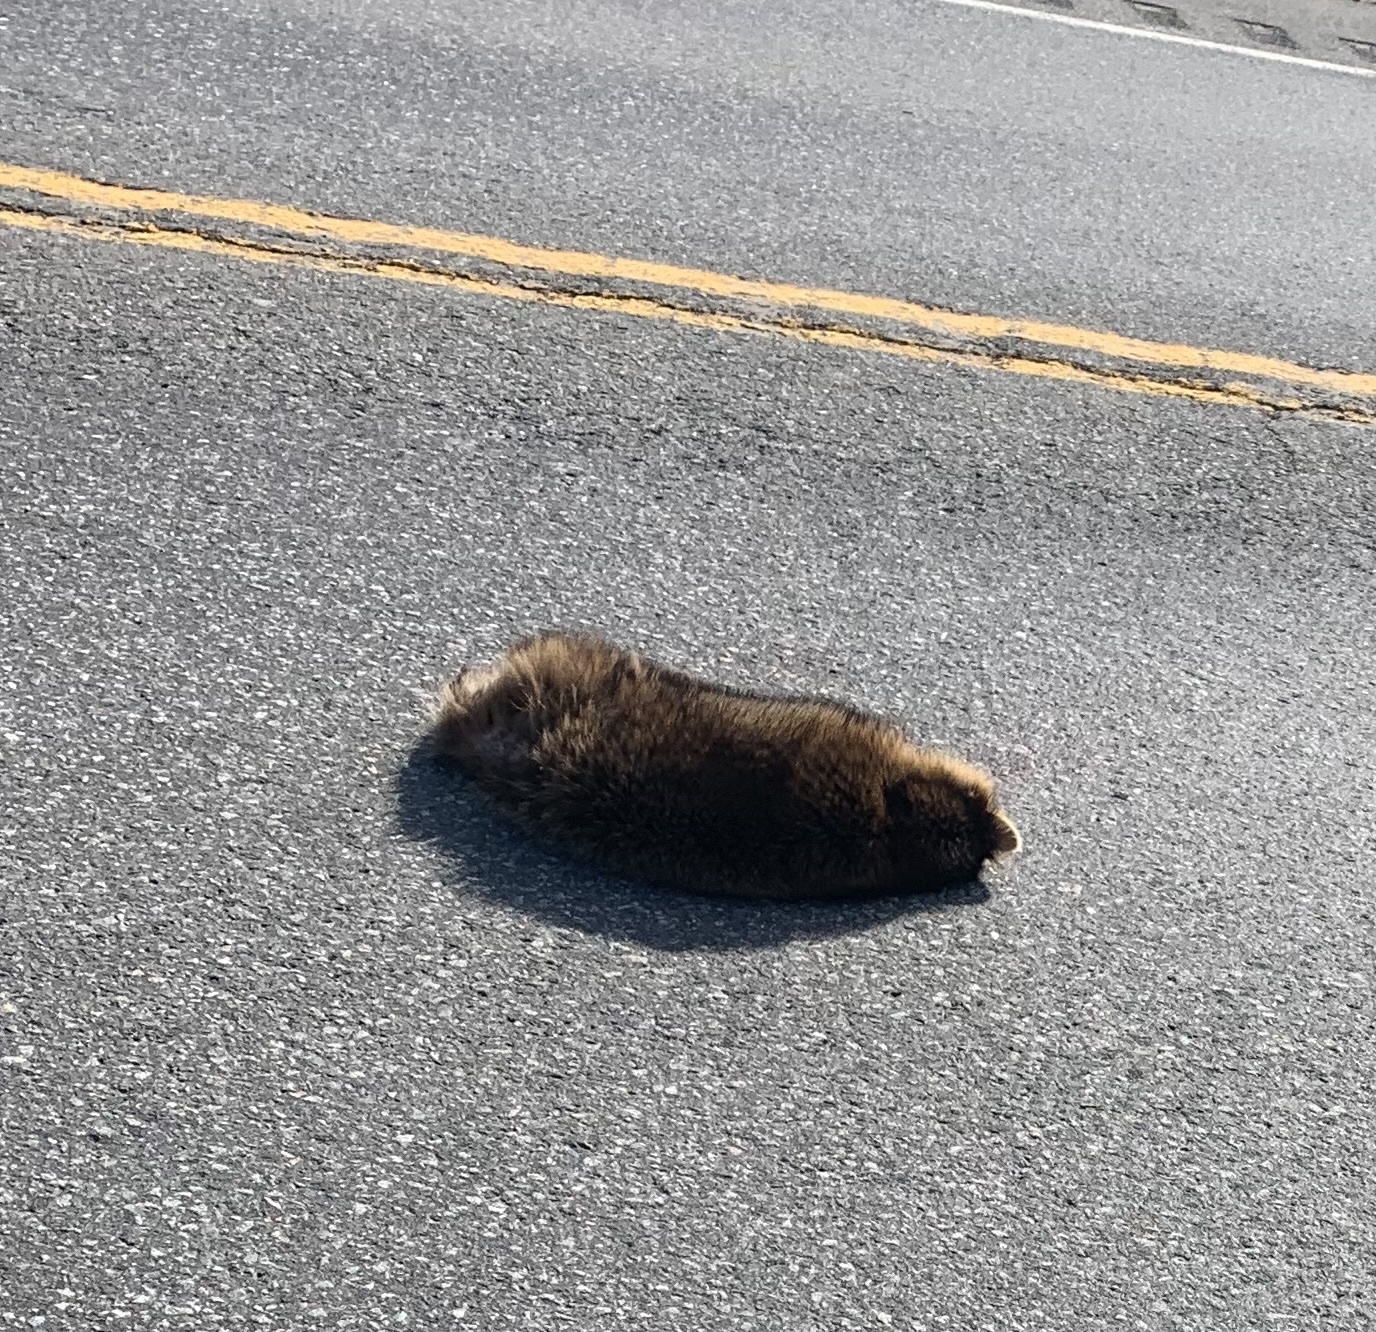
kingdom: Animalia
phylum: Chordata
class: Mammalia
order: Carnivora
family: Procyonidae
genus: Procyon
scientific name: Procyon lotor
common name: Raccoon
